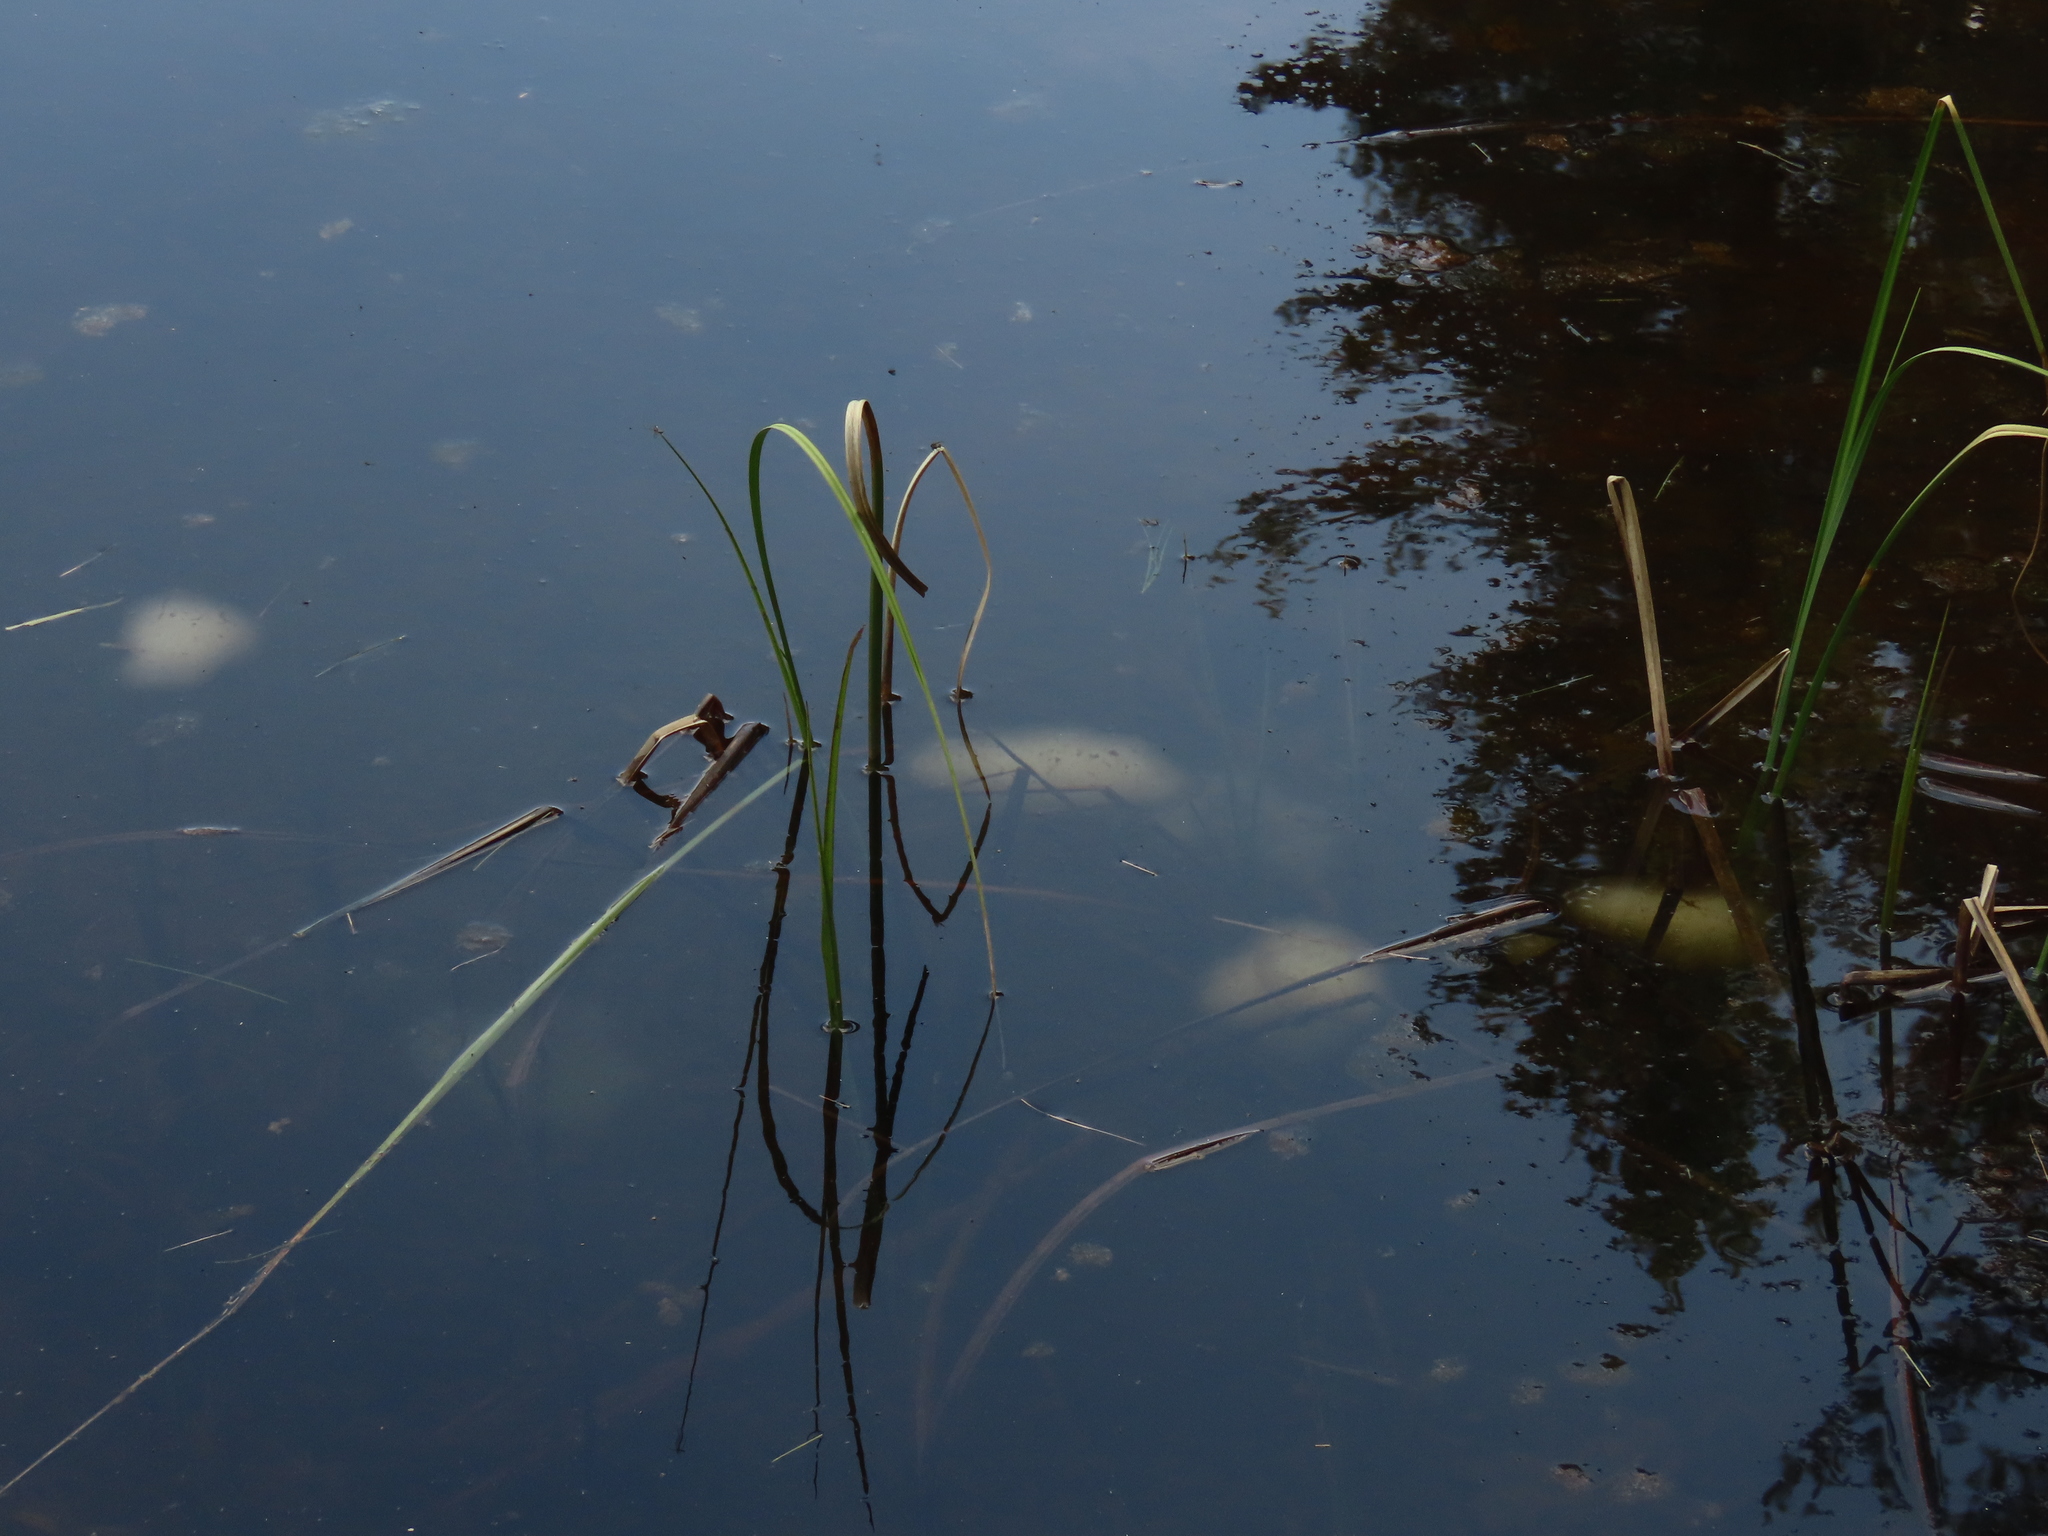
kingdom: Animalia
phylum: Chordata
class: Amphibia
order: Caudata
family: Ambystomatidae
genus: Ambystoma
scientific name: Ambystoma maculatum
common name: Spotted salamander
